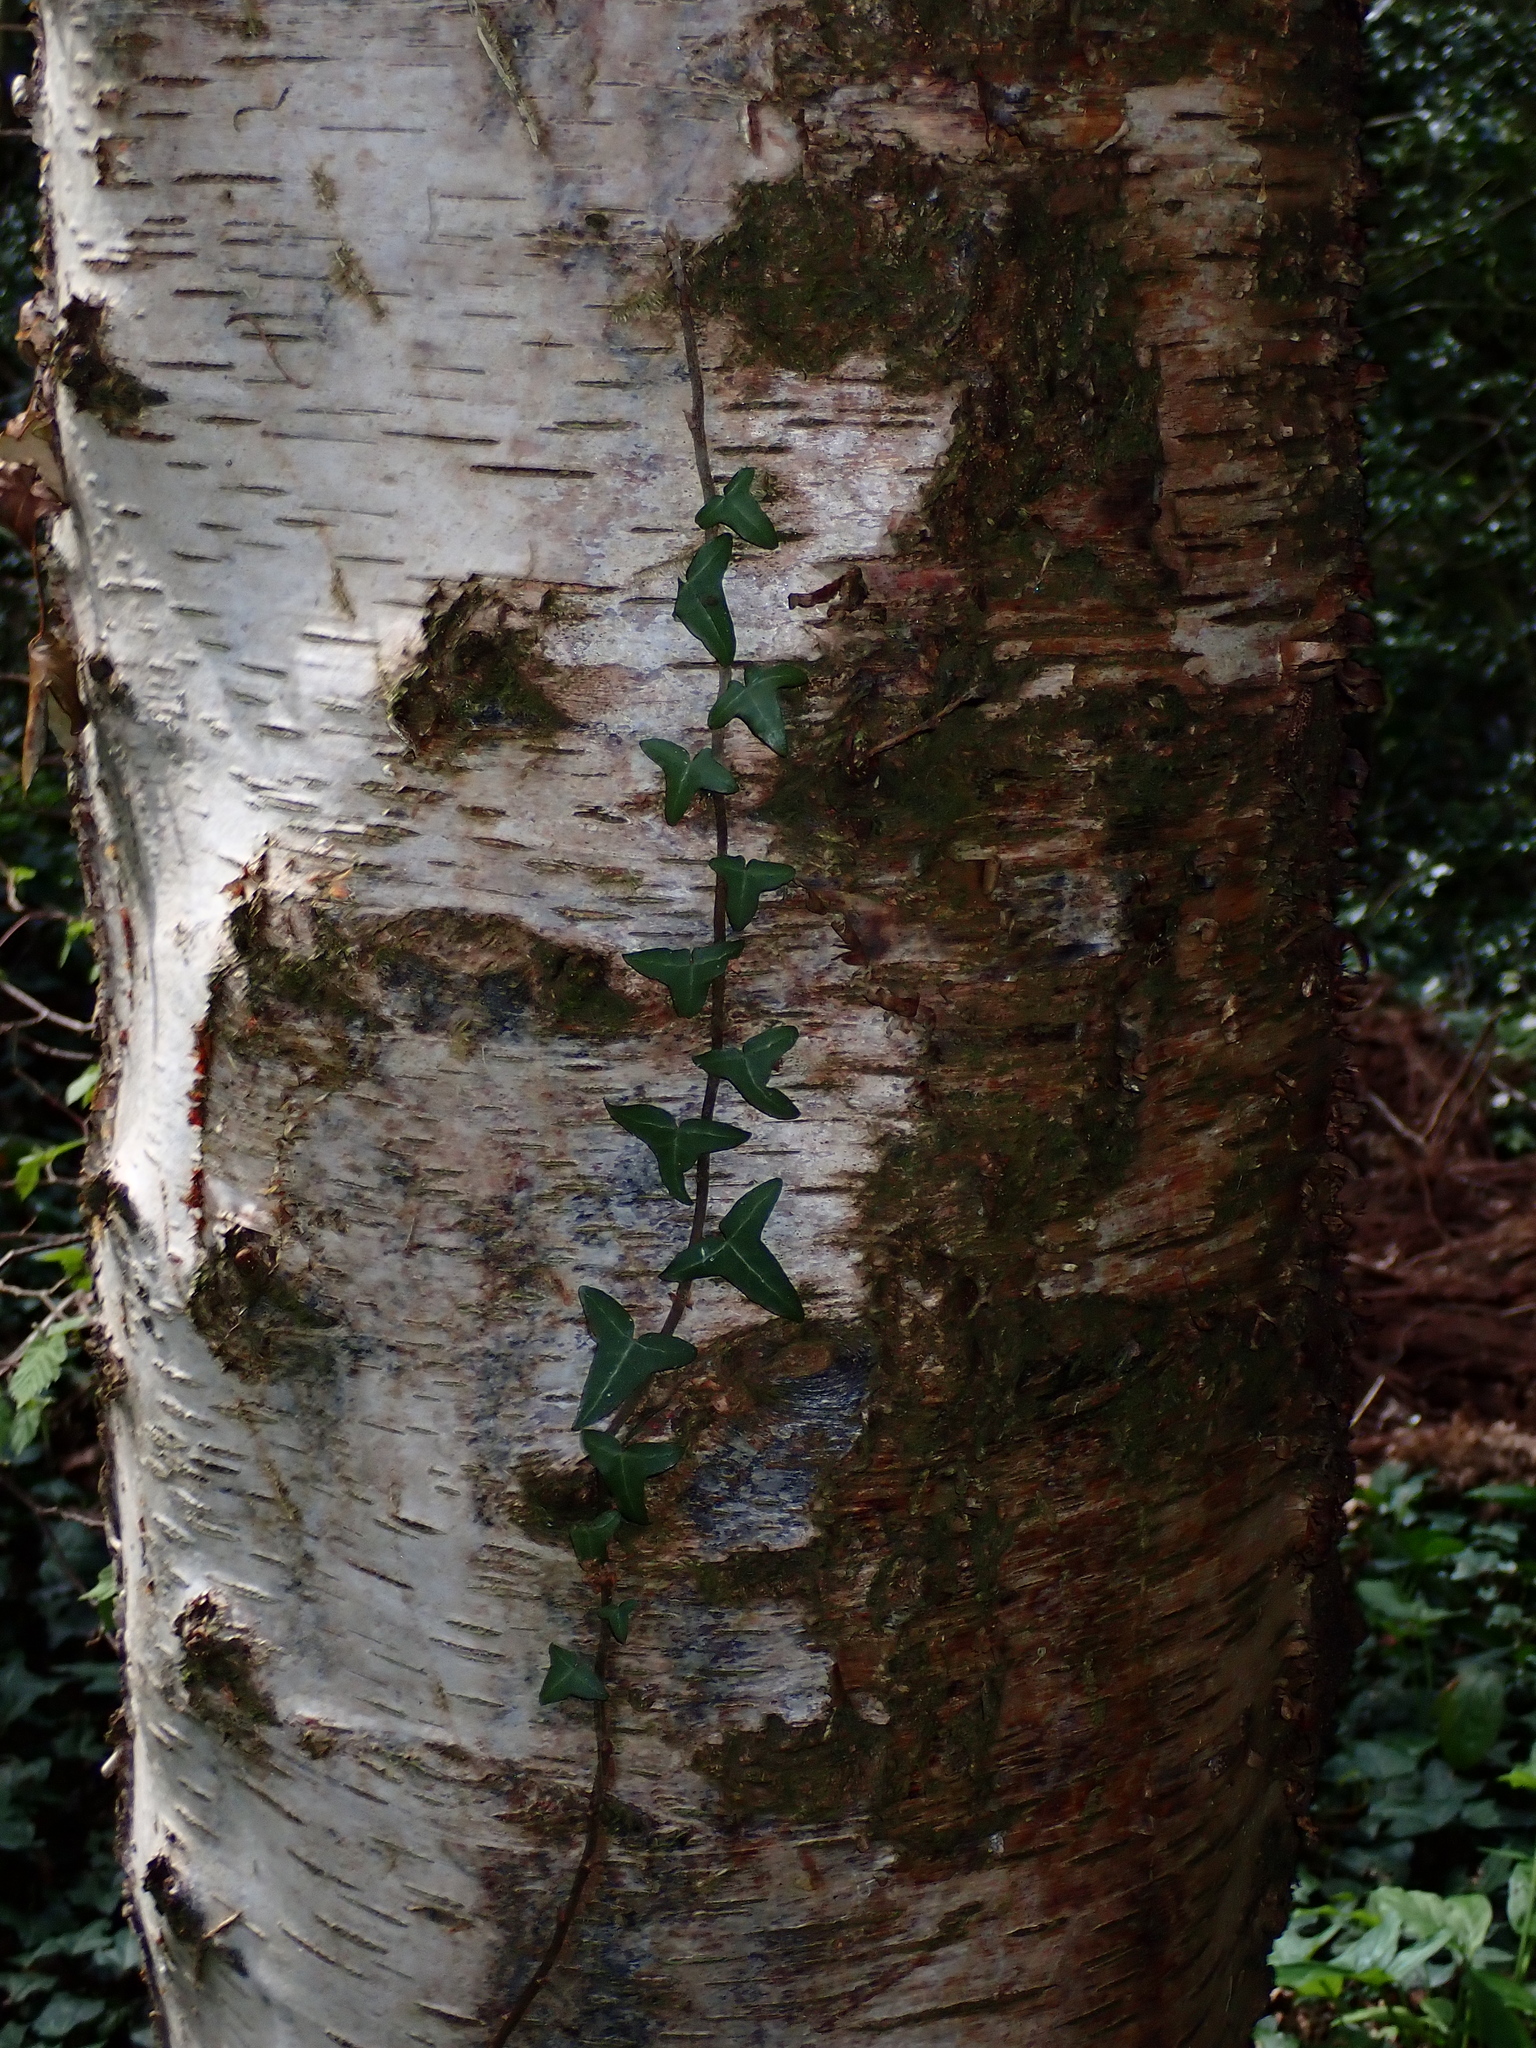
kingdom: Plantae
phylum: Tracheophyta
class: Magnoliopsida
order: Fagales
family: Betulaceae
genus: Betula
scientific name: Betula pendula
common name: Silver birch
